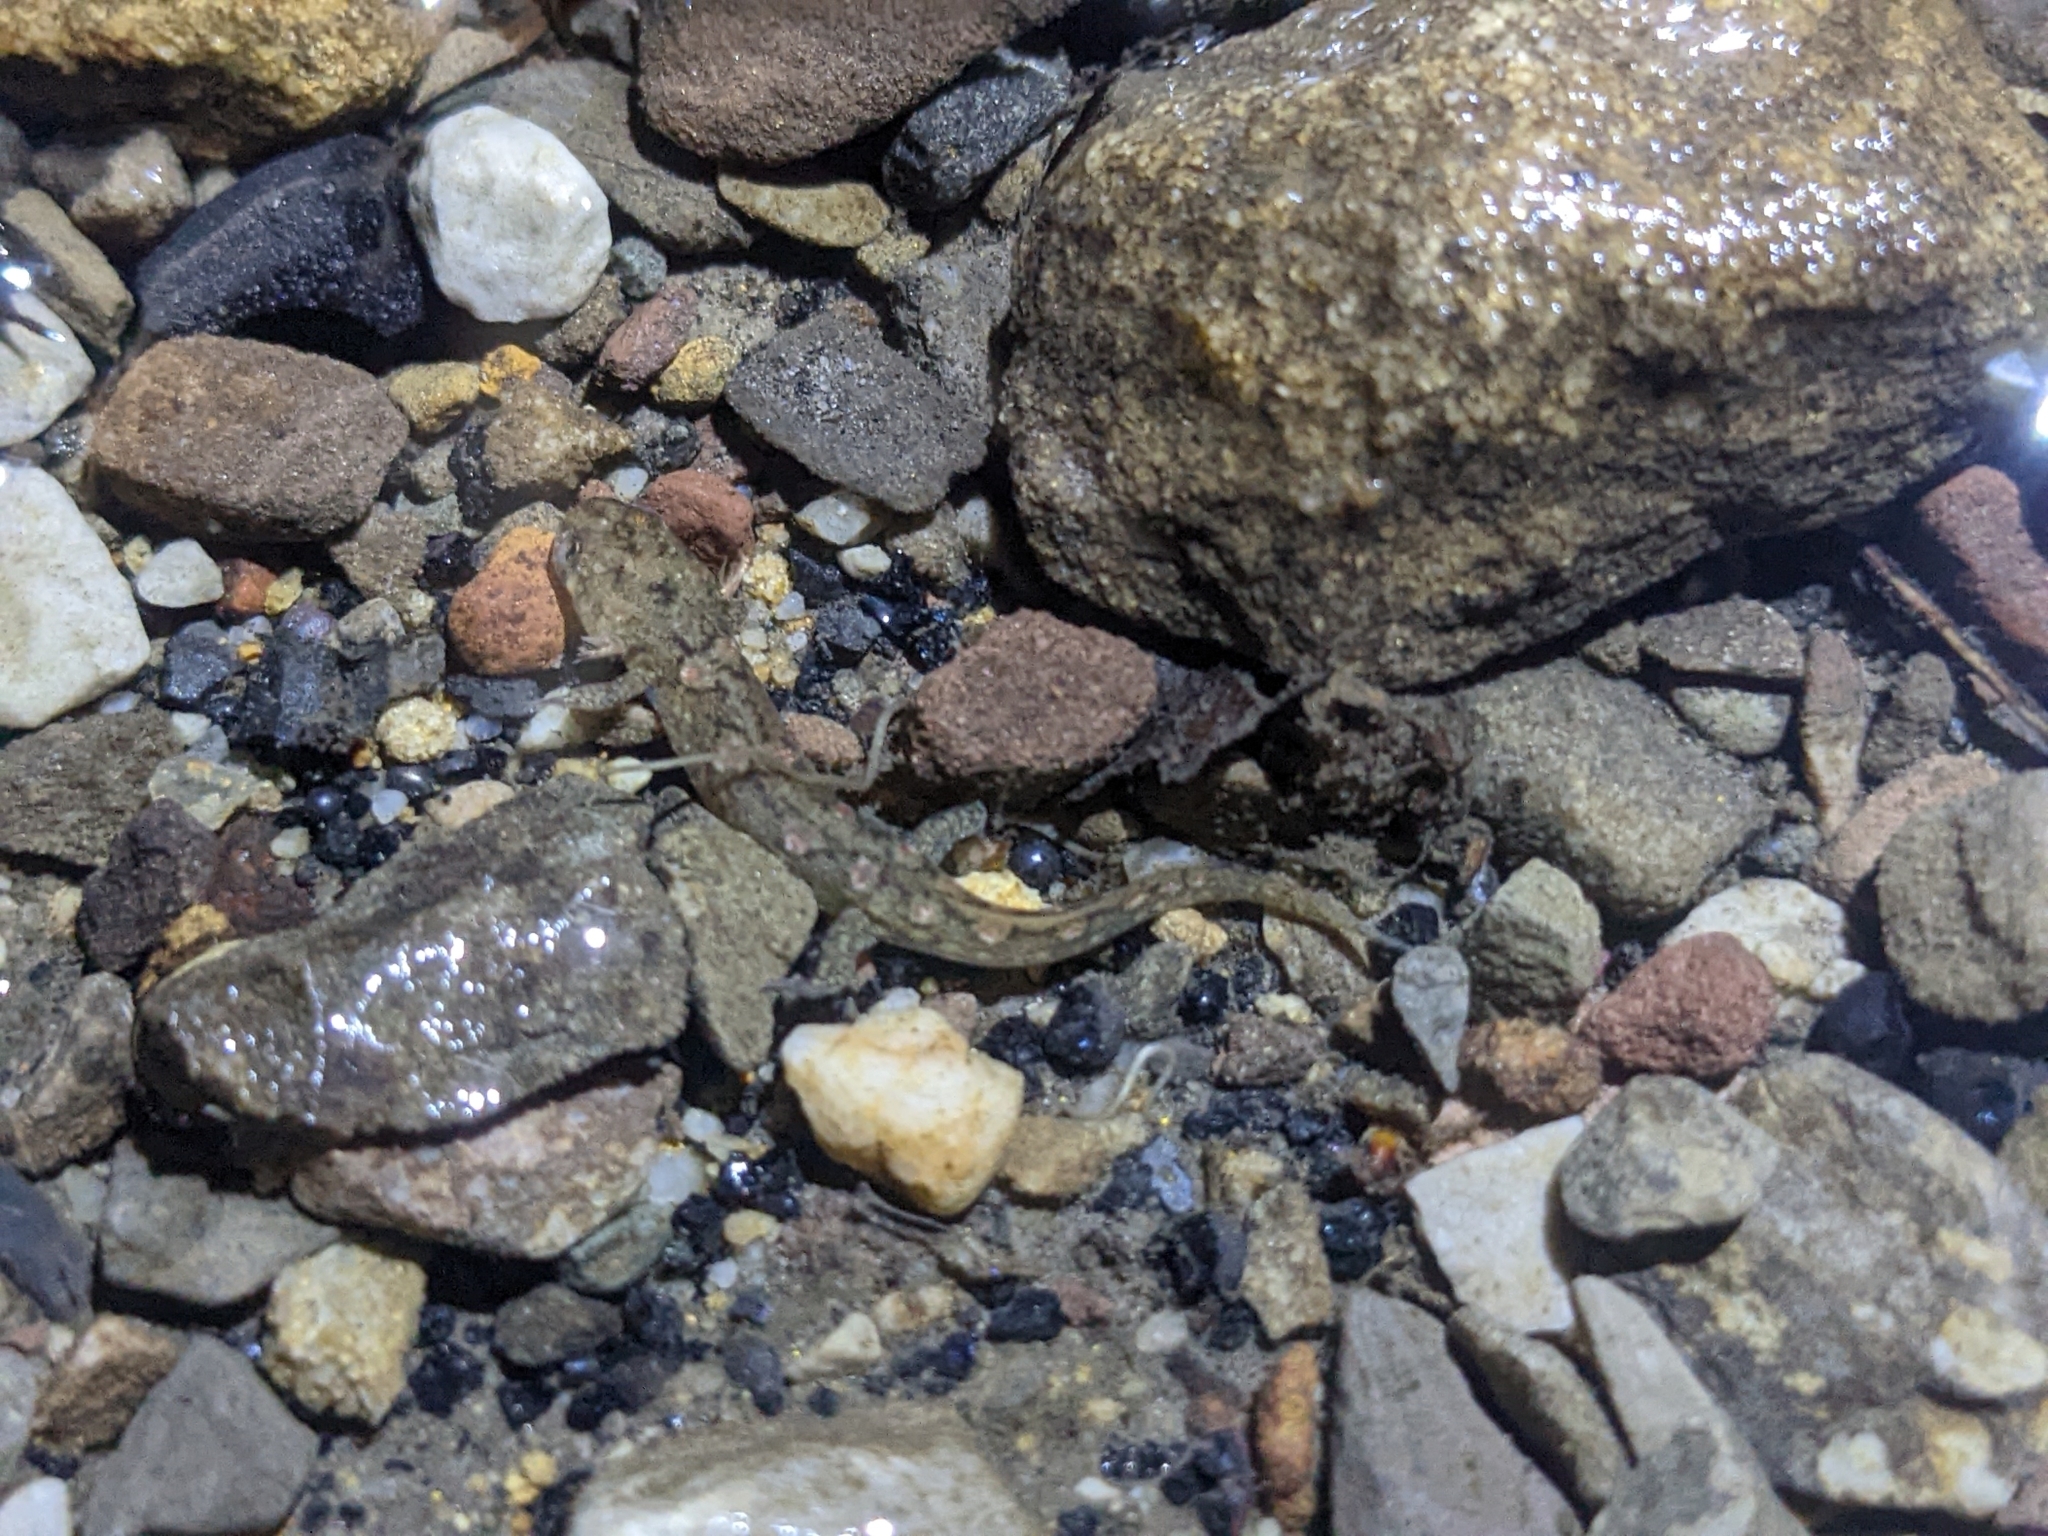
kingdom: Animalia
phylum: Chordata
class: Amphibia
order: Caudata
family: Plethodontidae
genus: Desmognathus
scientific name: Desmognathus monticola
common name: Seal salamander
